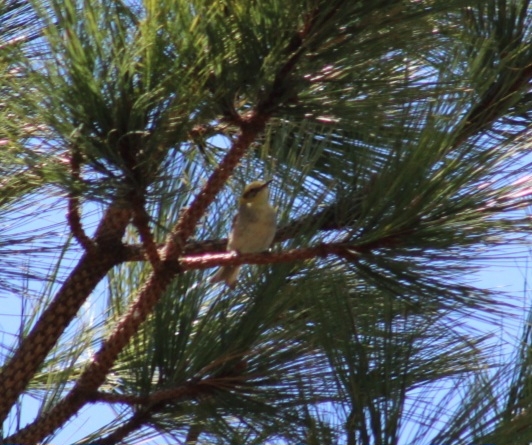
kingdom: Animalia
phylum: Chordata
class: Aves
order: Passeriformes
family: Peucedramidae
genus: Peucedramus
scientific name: Peucedramus taeniatus
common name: Olive warbler
